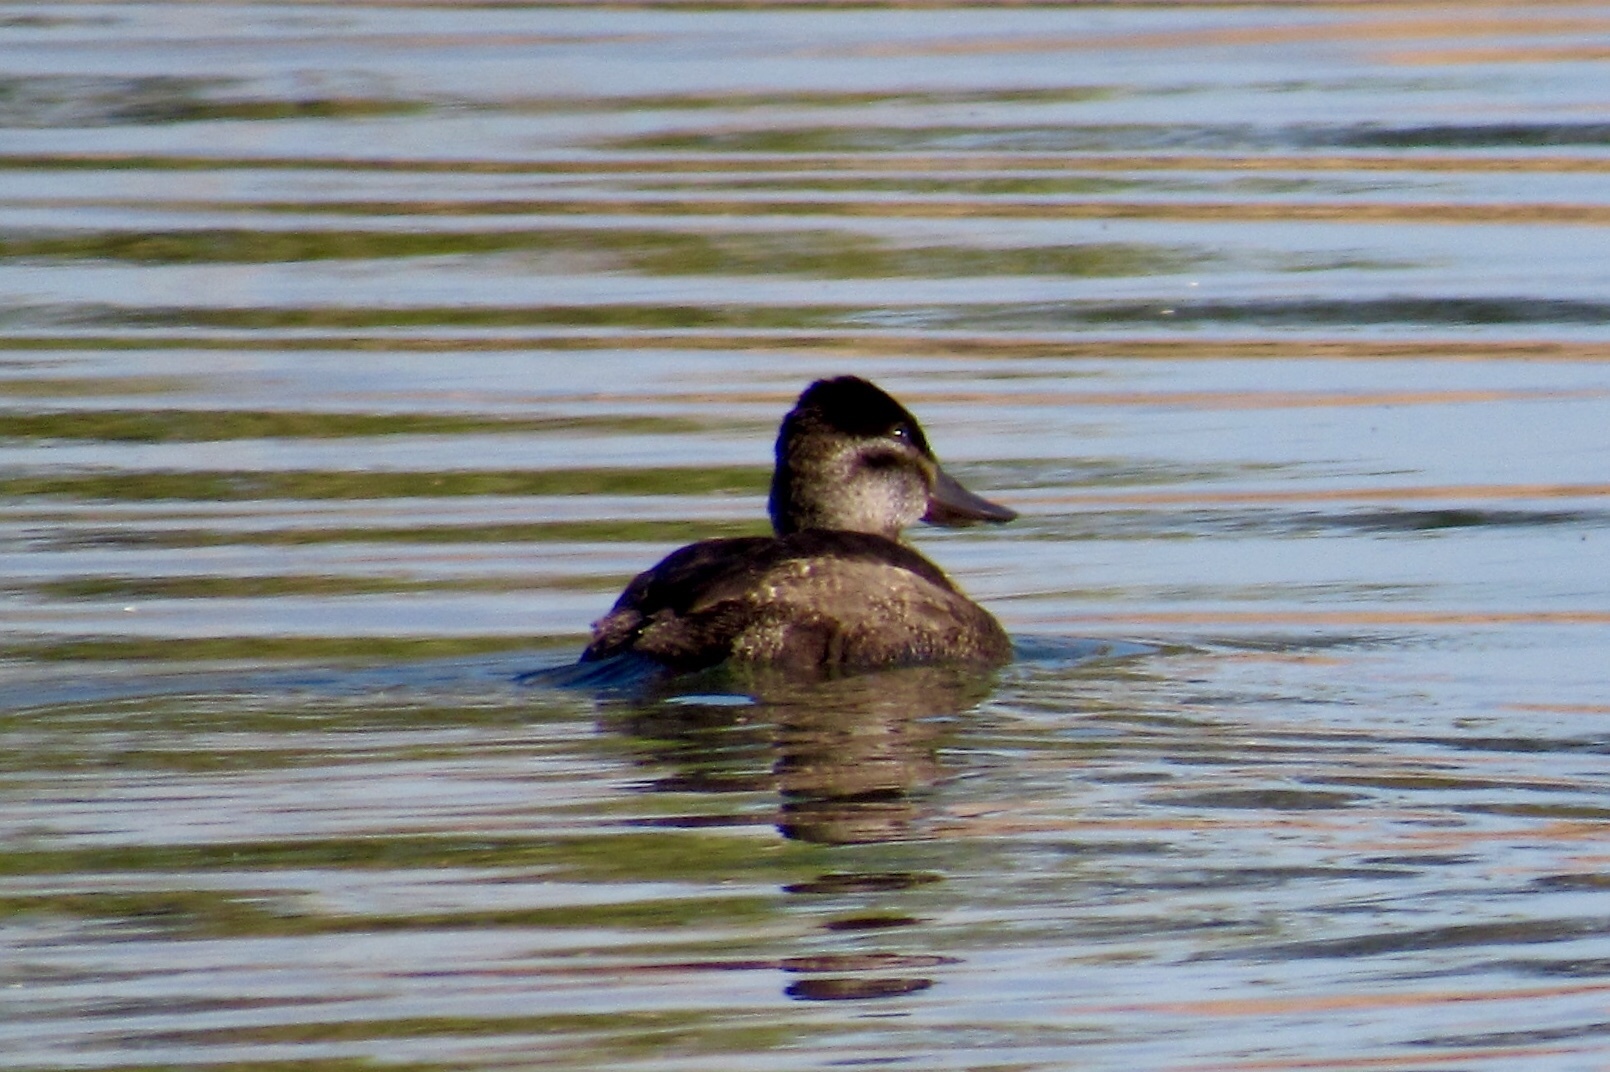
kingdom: Animalia
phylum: Chordata
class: Aves
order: Anseriformes
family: Anatidae
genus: Oxyura
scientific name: Oxyura jamaicensis
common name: Ruddy duck
